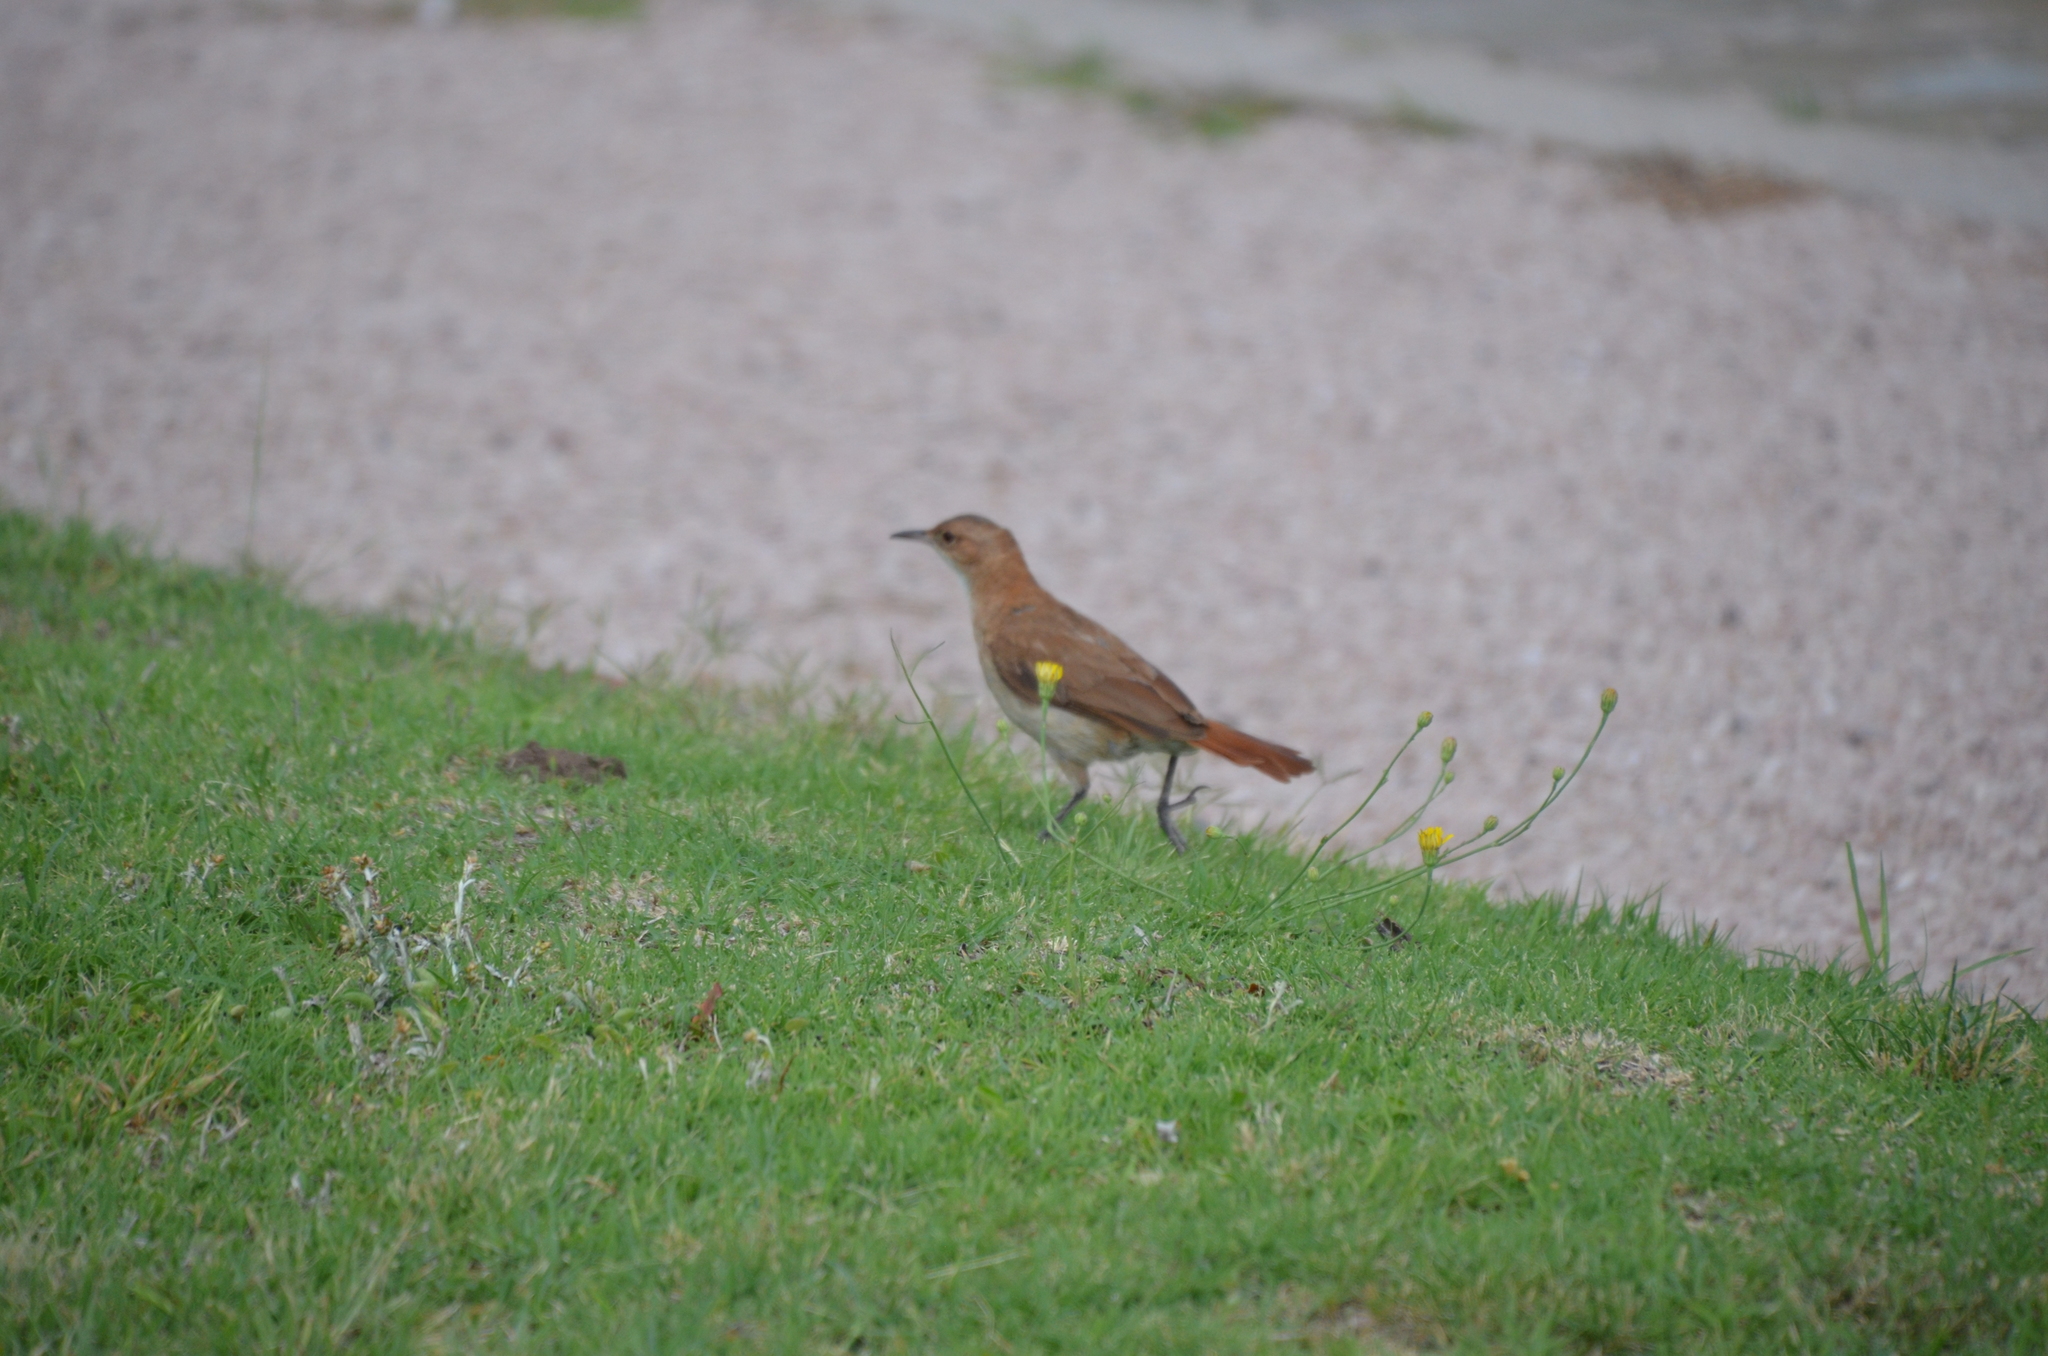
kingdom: Animalia
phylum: Chordata
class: Aves
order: Passeriformes
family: Furnariidae
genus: Furnarius
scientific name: Furnarius rufus
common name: Rufous hornero
